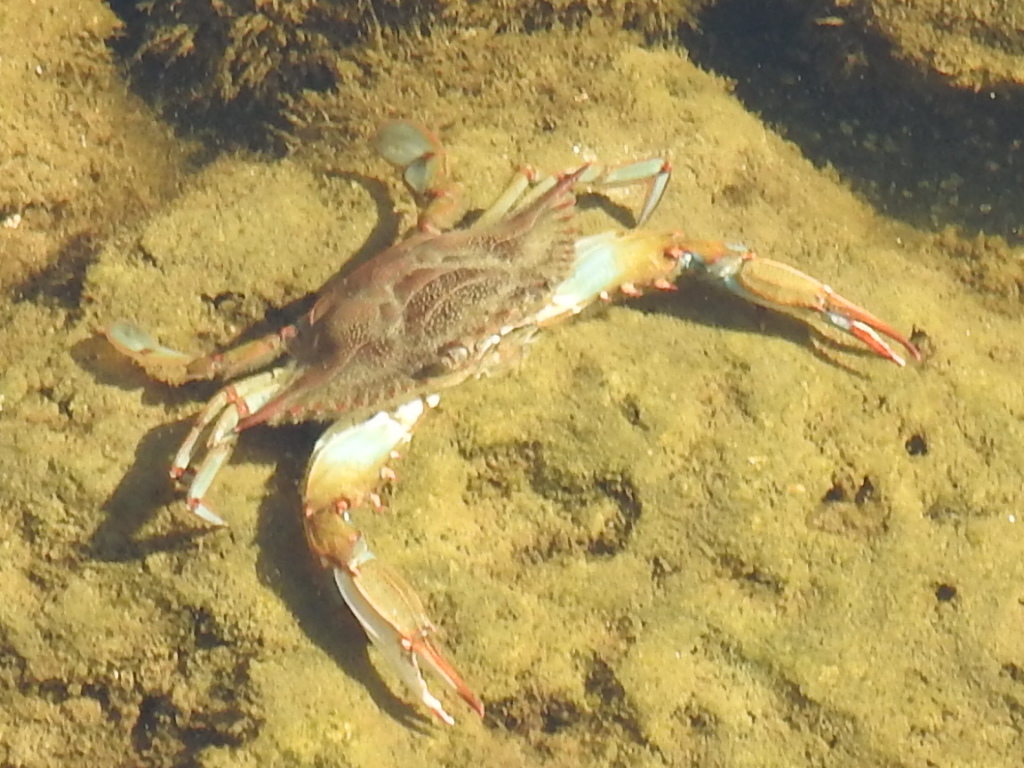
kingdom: Animalia
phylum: Arthropoda
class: Malacostraca
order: Decapoda
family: Portunidae
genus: Callinectes
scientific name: Callinectes sapidus
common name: Blue crab
